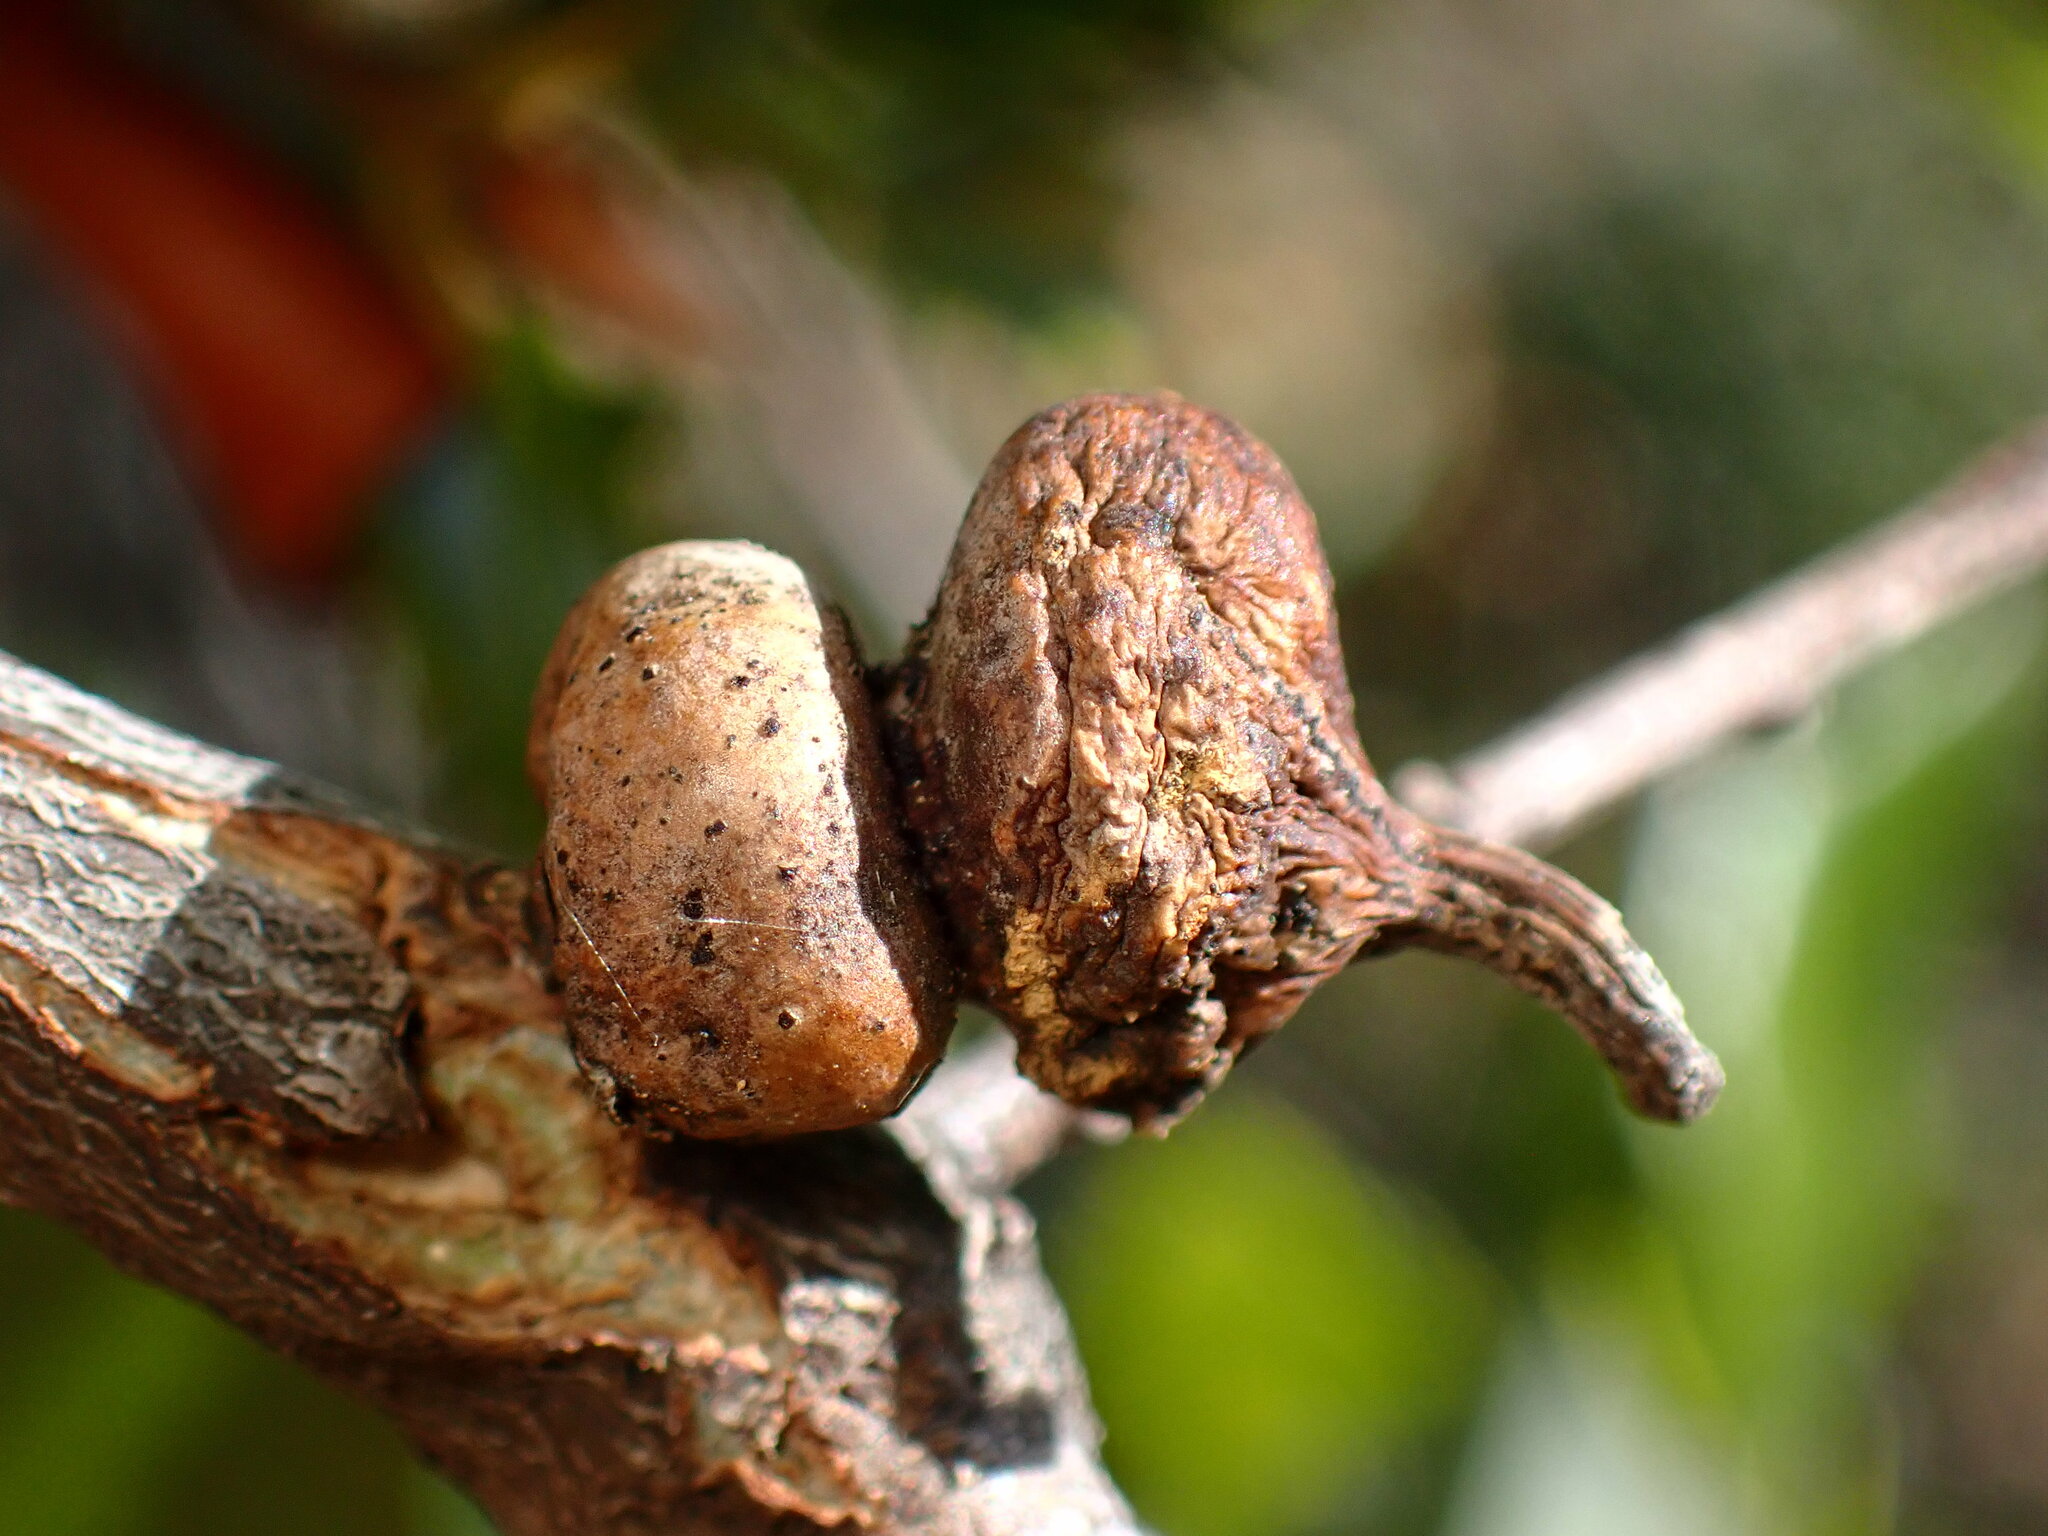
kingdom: Animalia
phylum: Arthropoda
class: Insecta
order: Hymenoptera
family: Cynipidae
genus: Heteroecus
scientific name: Heteroecus
